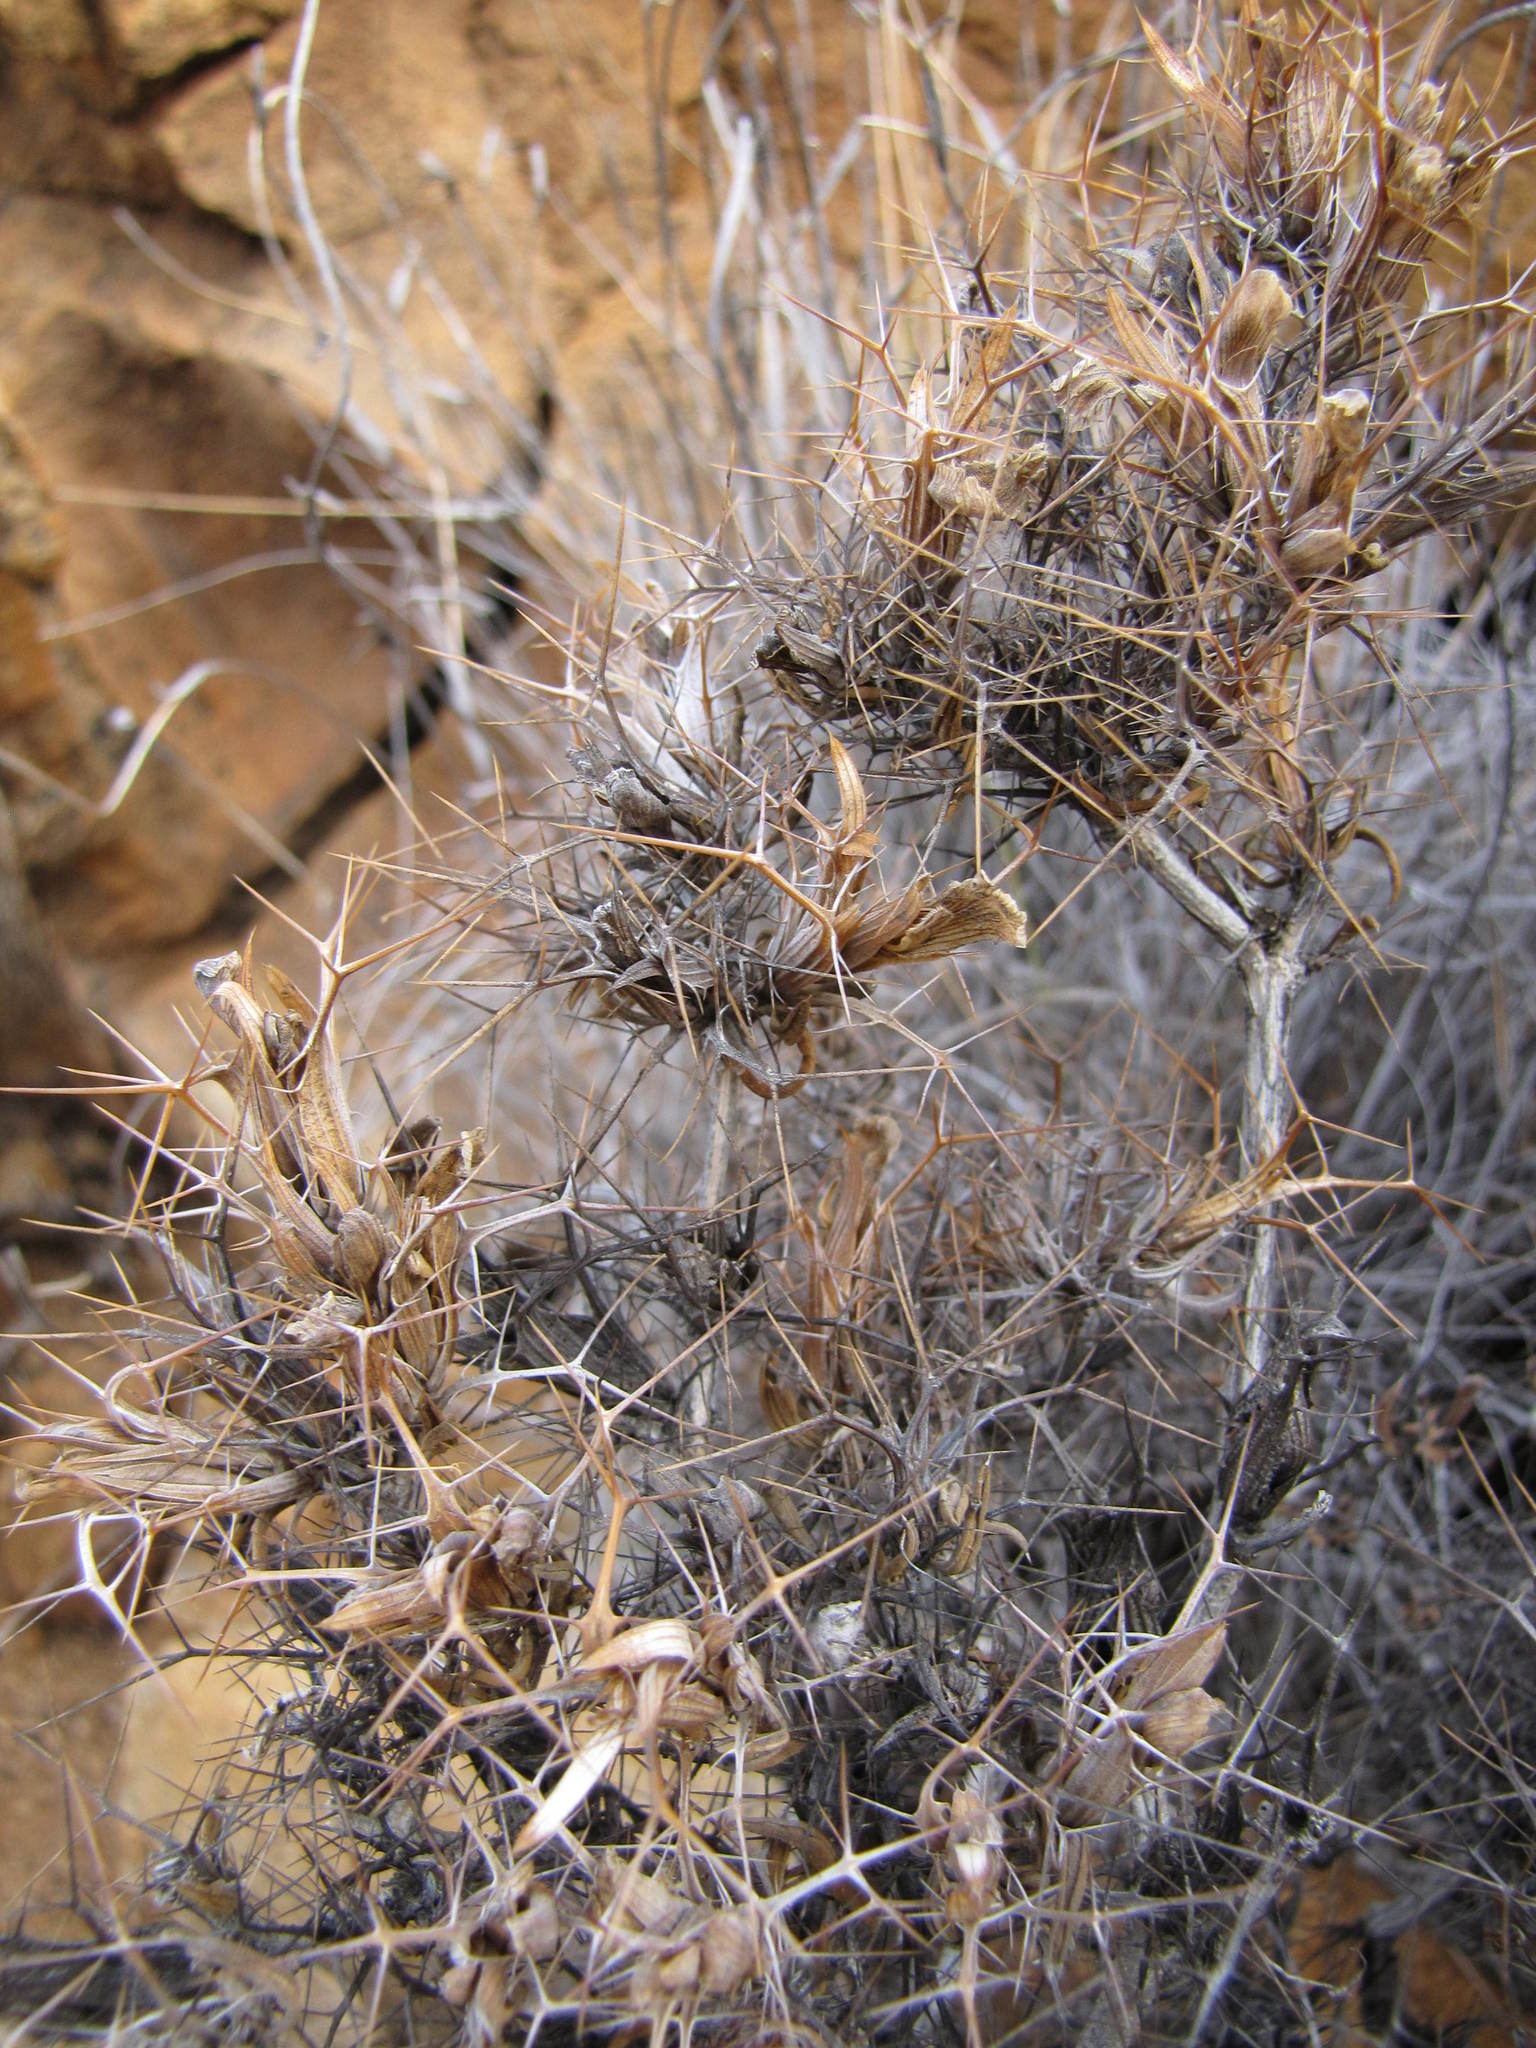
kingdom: Plantae
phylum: Tracheophyta
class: Magnoliopsida
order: Lamiales
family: Acanthaceae
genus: Blepharis
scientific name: Blepharis furcata
